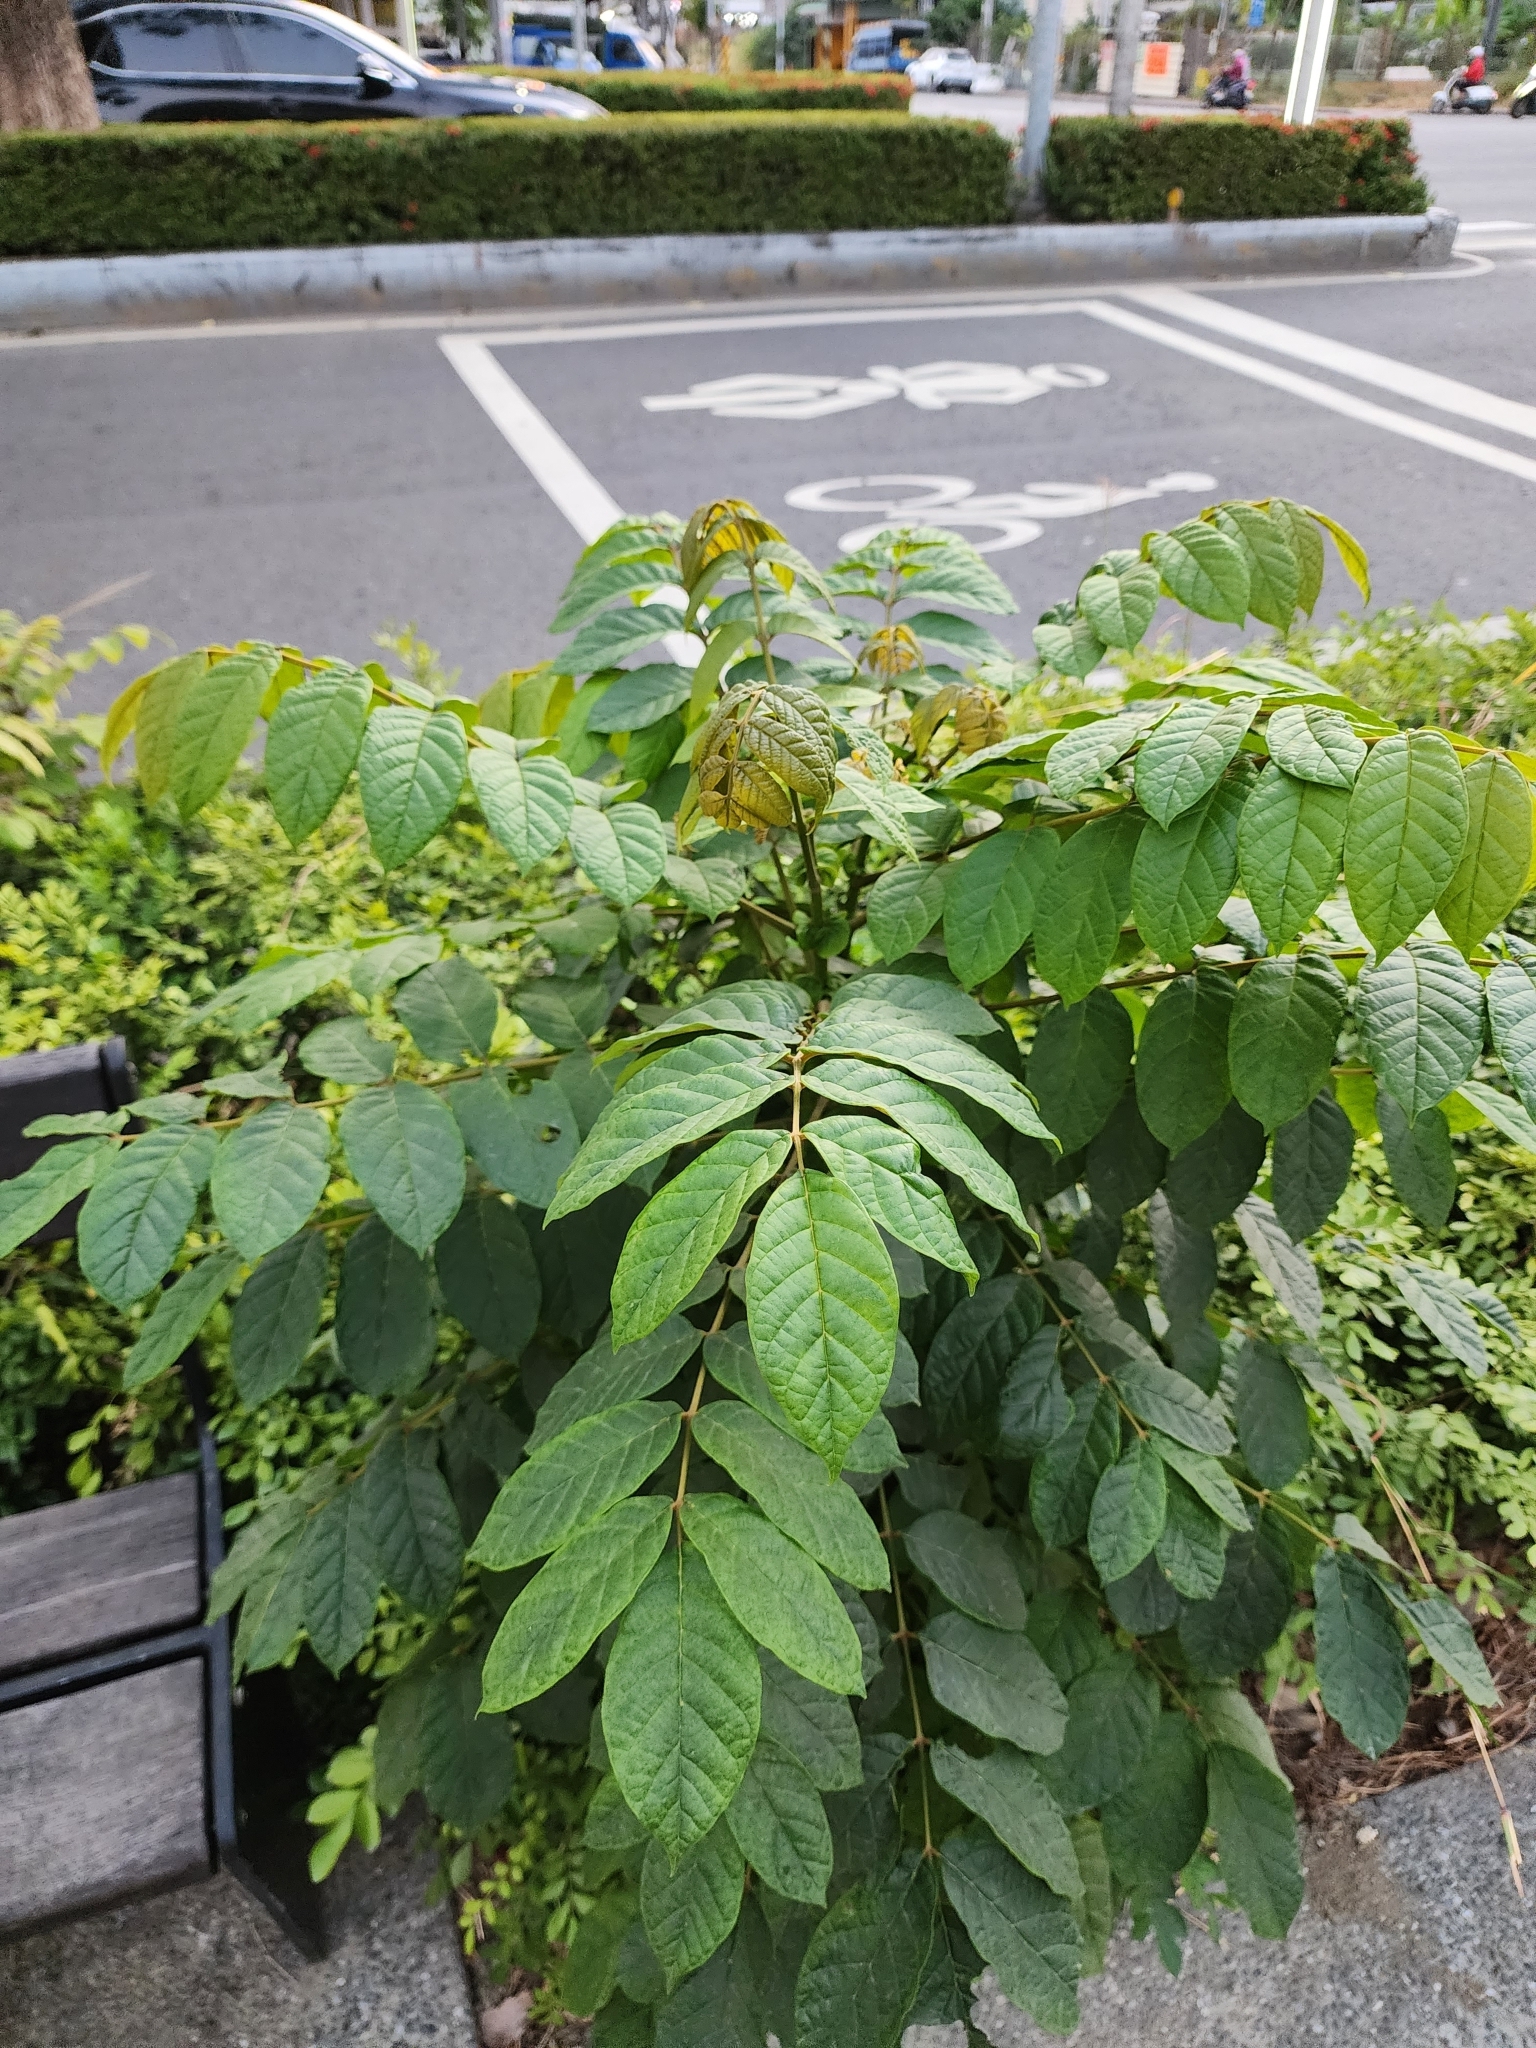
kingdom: Plantae
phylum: Tracheophyta
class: Magnoliopsida
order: Lamiales
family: Bignoniaceae
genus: Spathodea
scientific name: Spathodea campanulata
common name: African tuliptree
